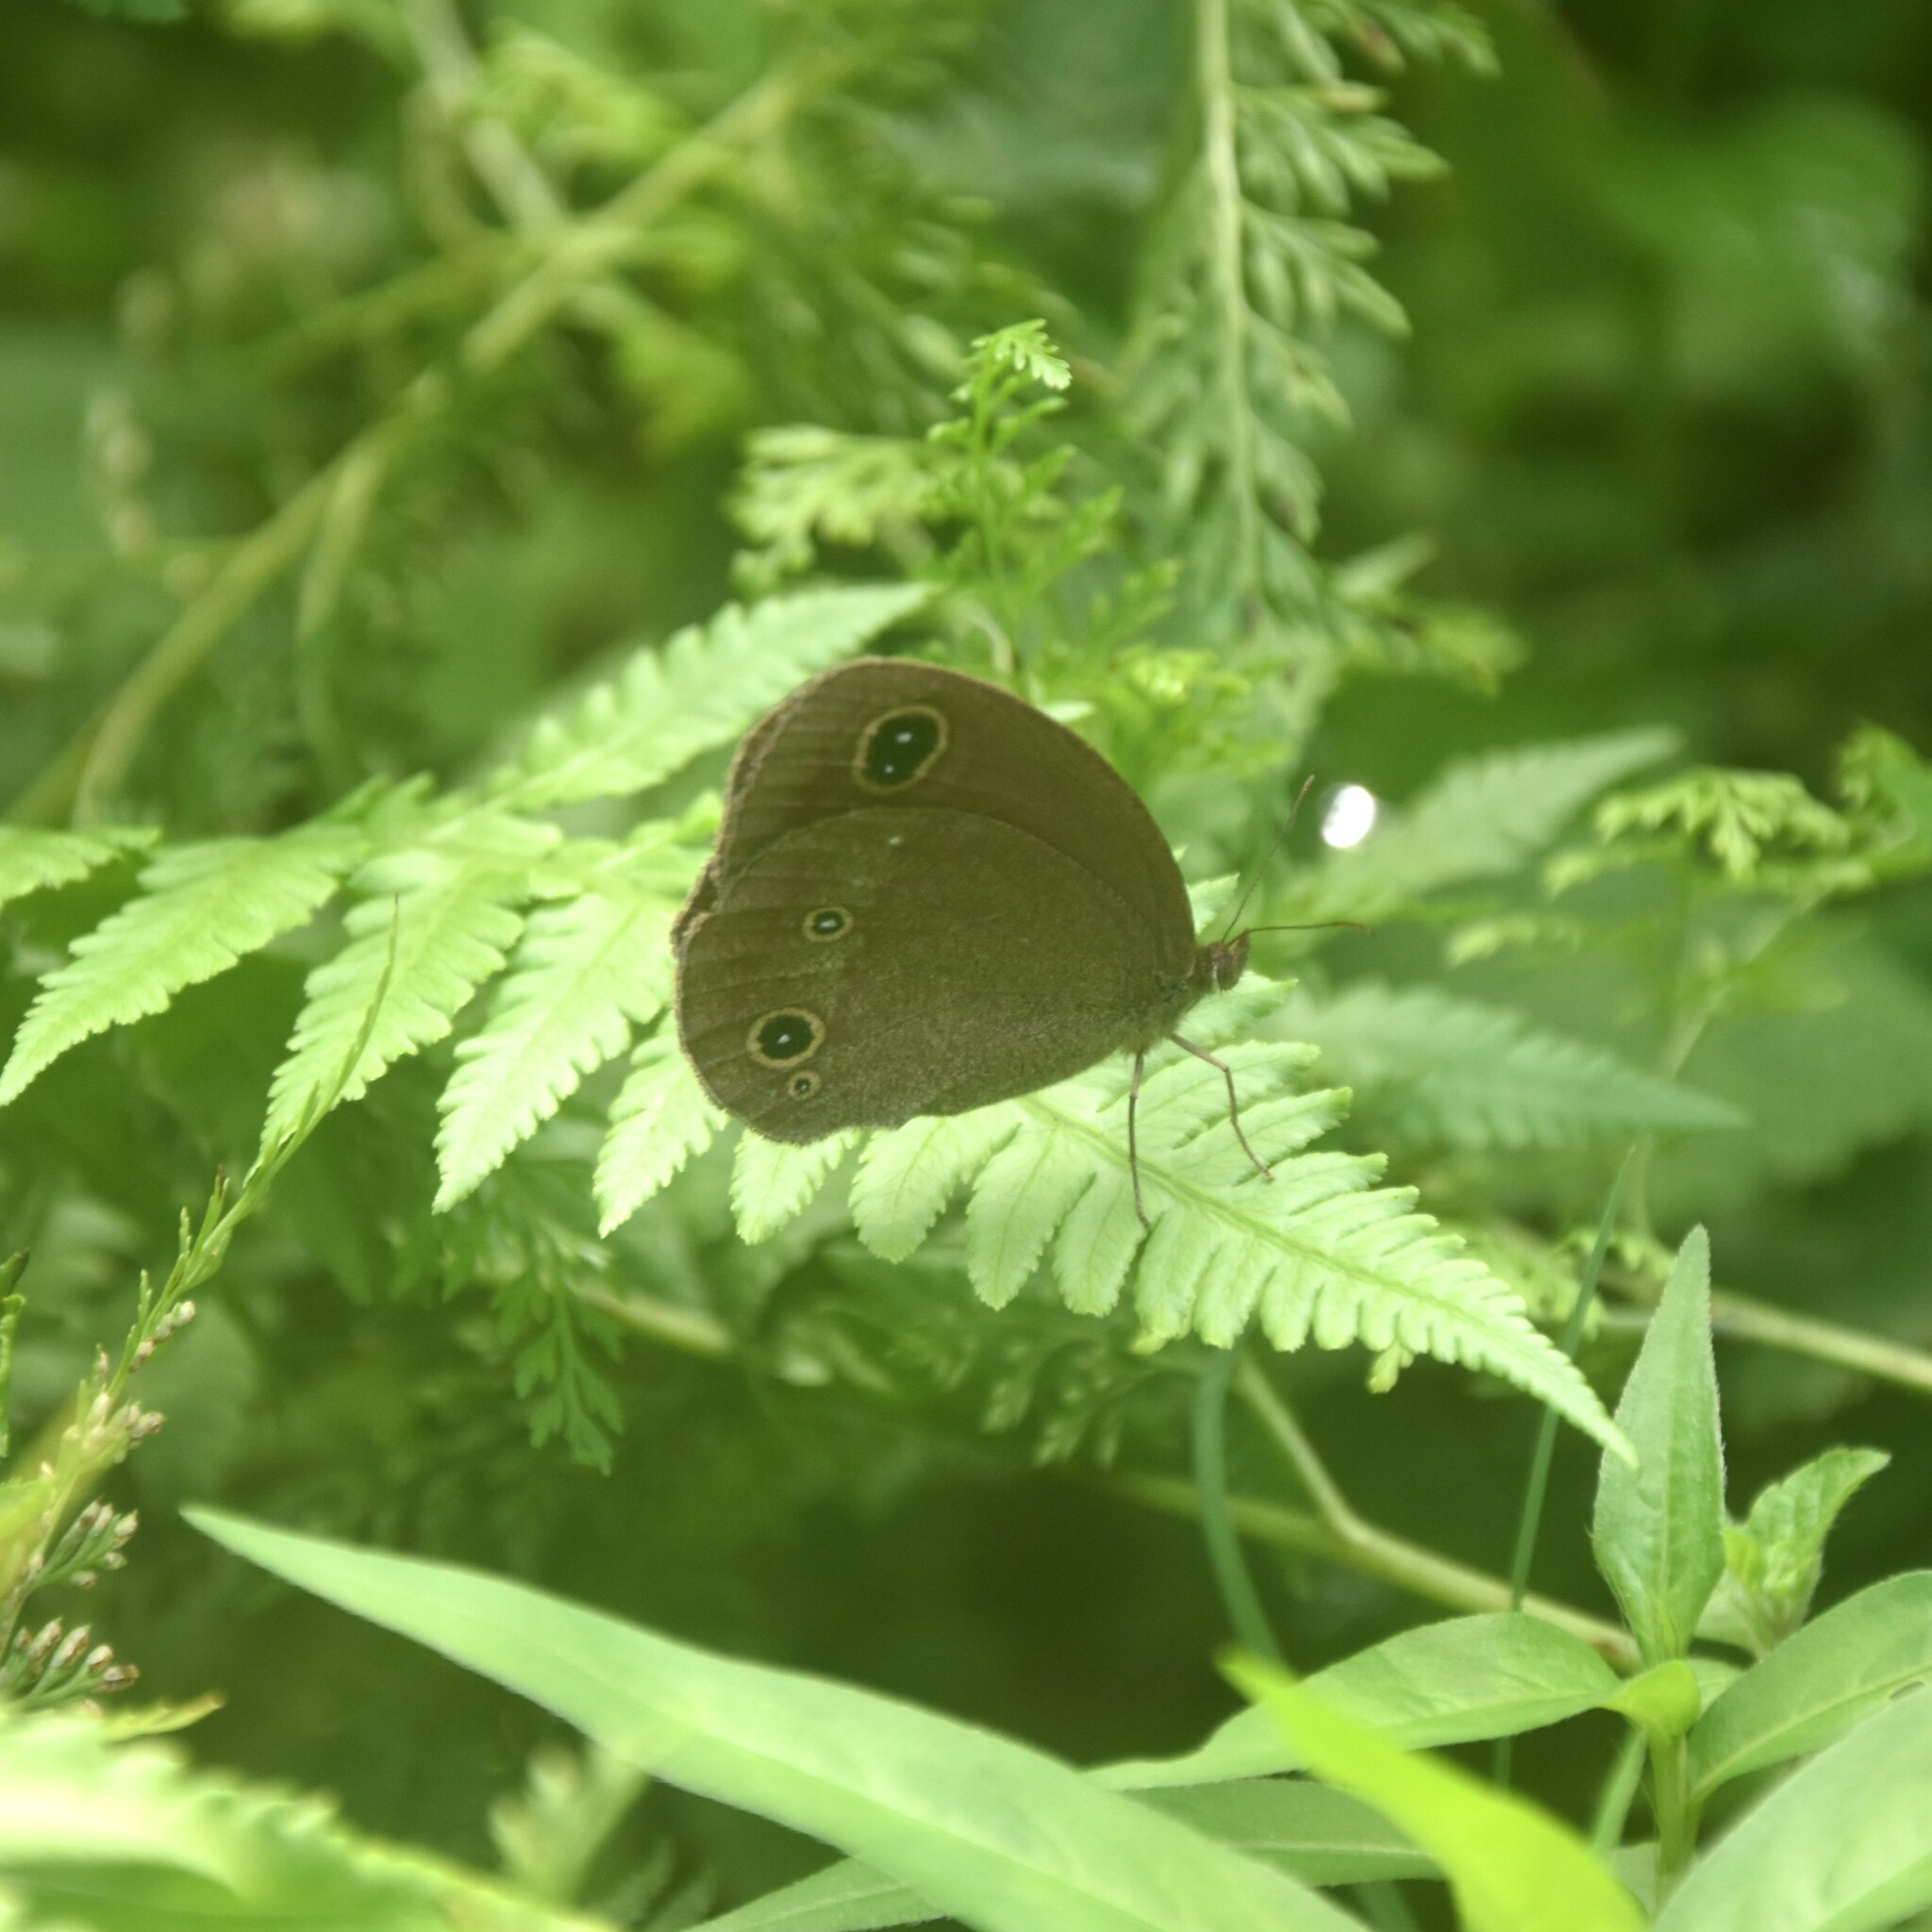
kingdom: Animalia
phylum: Arthropoda
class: Insecta
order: Lepidoptera
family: Nymphalidae
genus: Callerebia
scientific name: Callerebia nirmala
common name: Common argus
